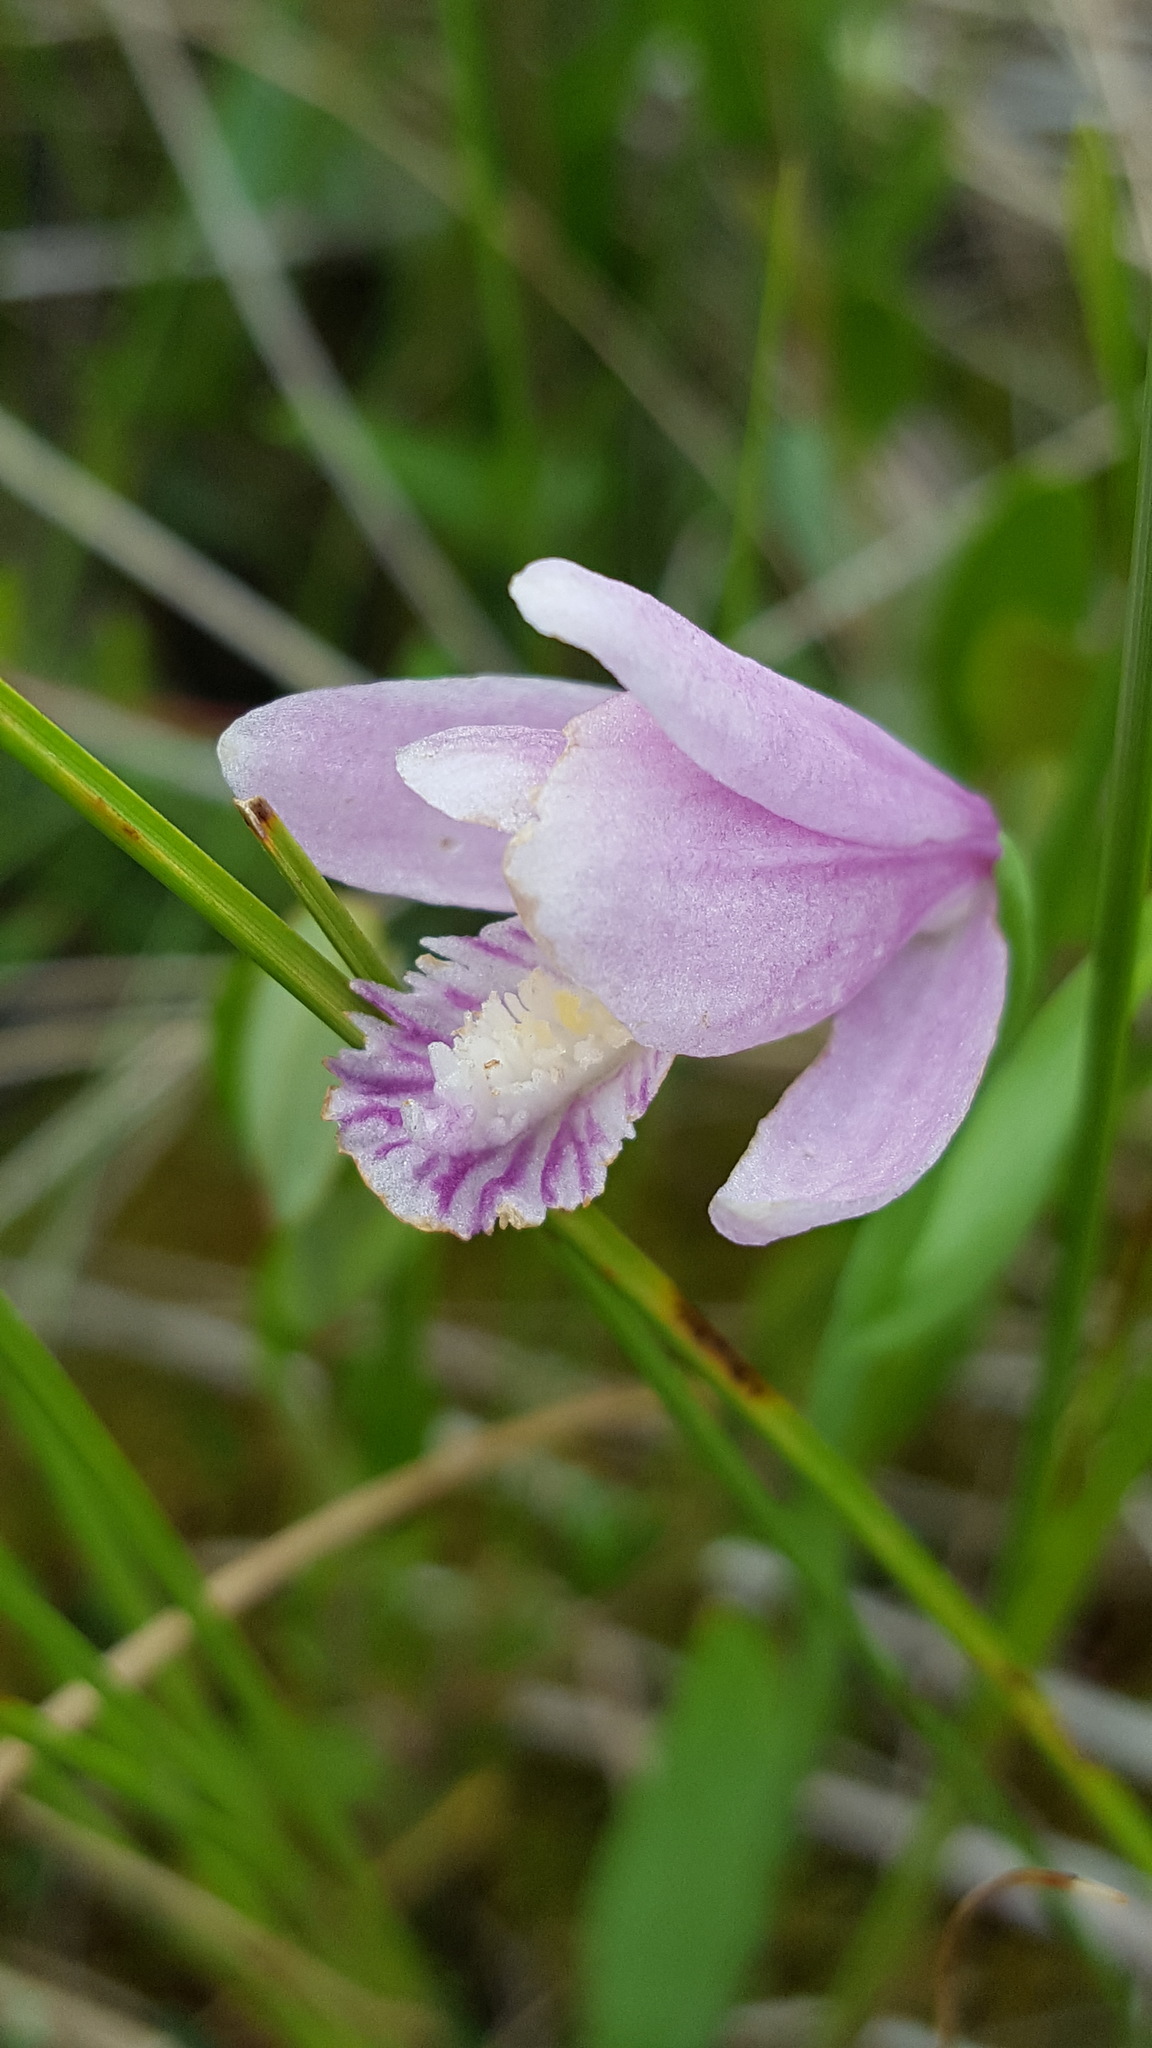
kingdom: Plantae
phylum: Tracheophyta
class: Liliopsida
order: Asparagales
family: Orchidaceae
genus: Pogonia
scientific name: Pogonia ophioglossoides
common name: Rose pogonia
